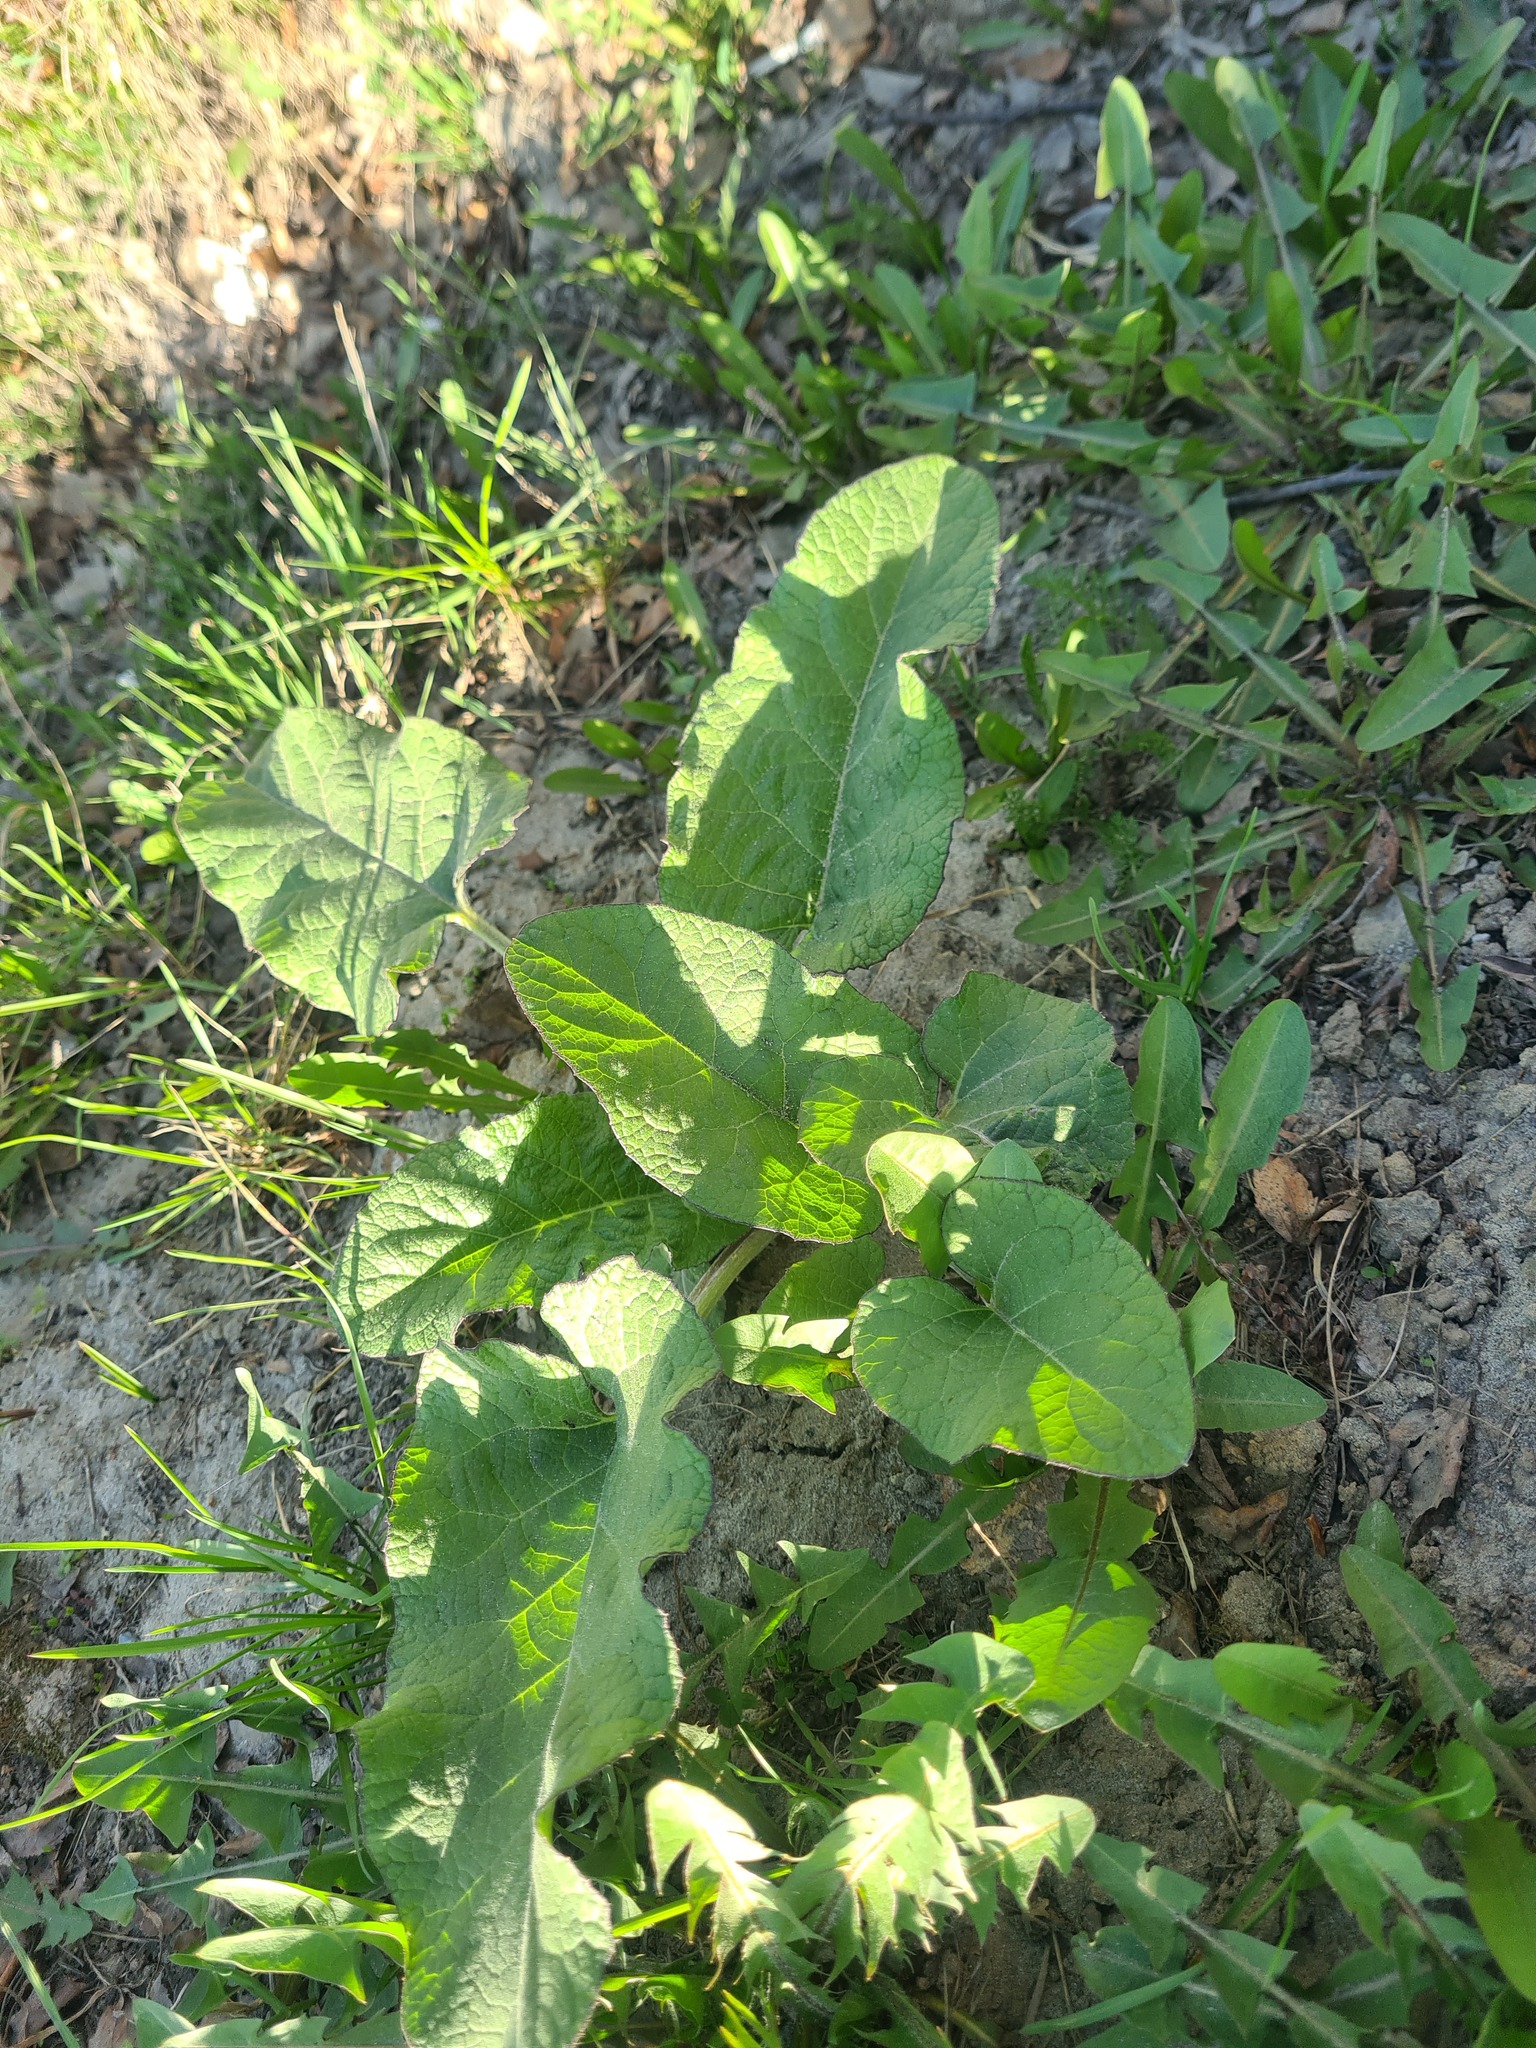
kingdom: Plantae
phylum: Tracheophyta
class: Magnoliopsida
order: Asterales
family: Asteraceae
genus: Arctium
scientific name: Arctium tomentosum
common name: Woolly burdock
